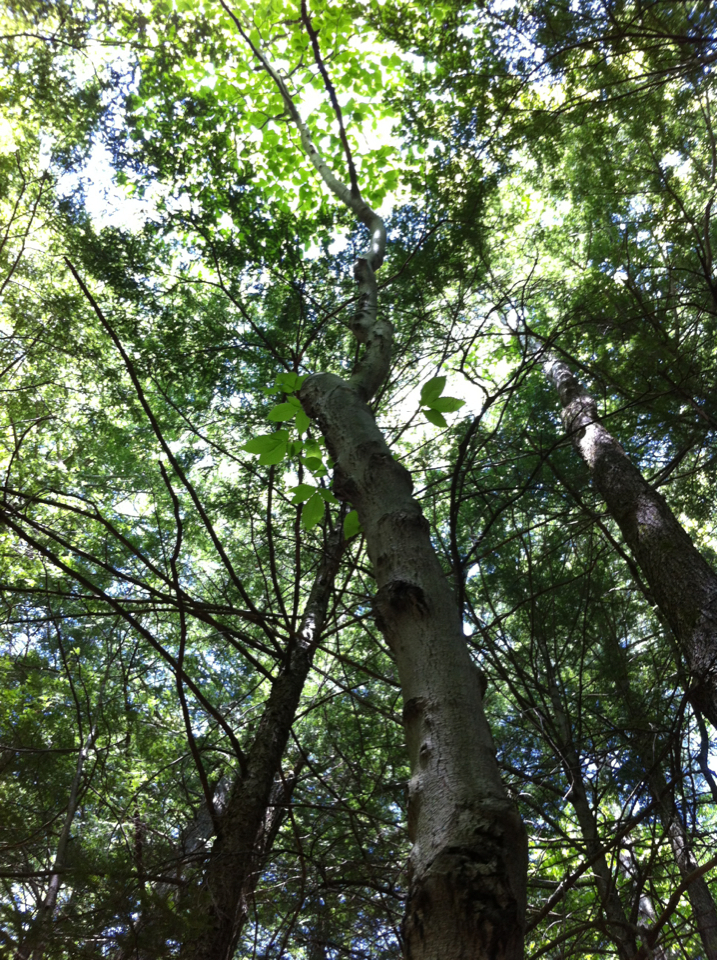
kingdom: Plantae
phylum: Tracheophyta
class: Magnoliopsida
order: Fagales
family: Fagaceae
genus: Fagus
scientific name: Fagus grandifolia
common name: American beech
